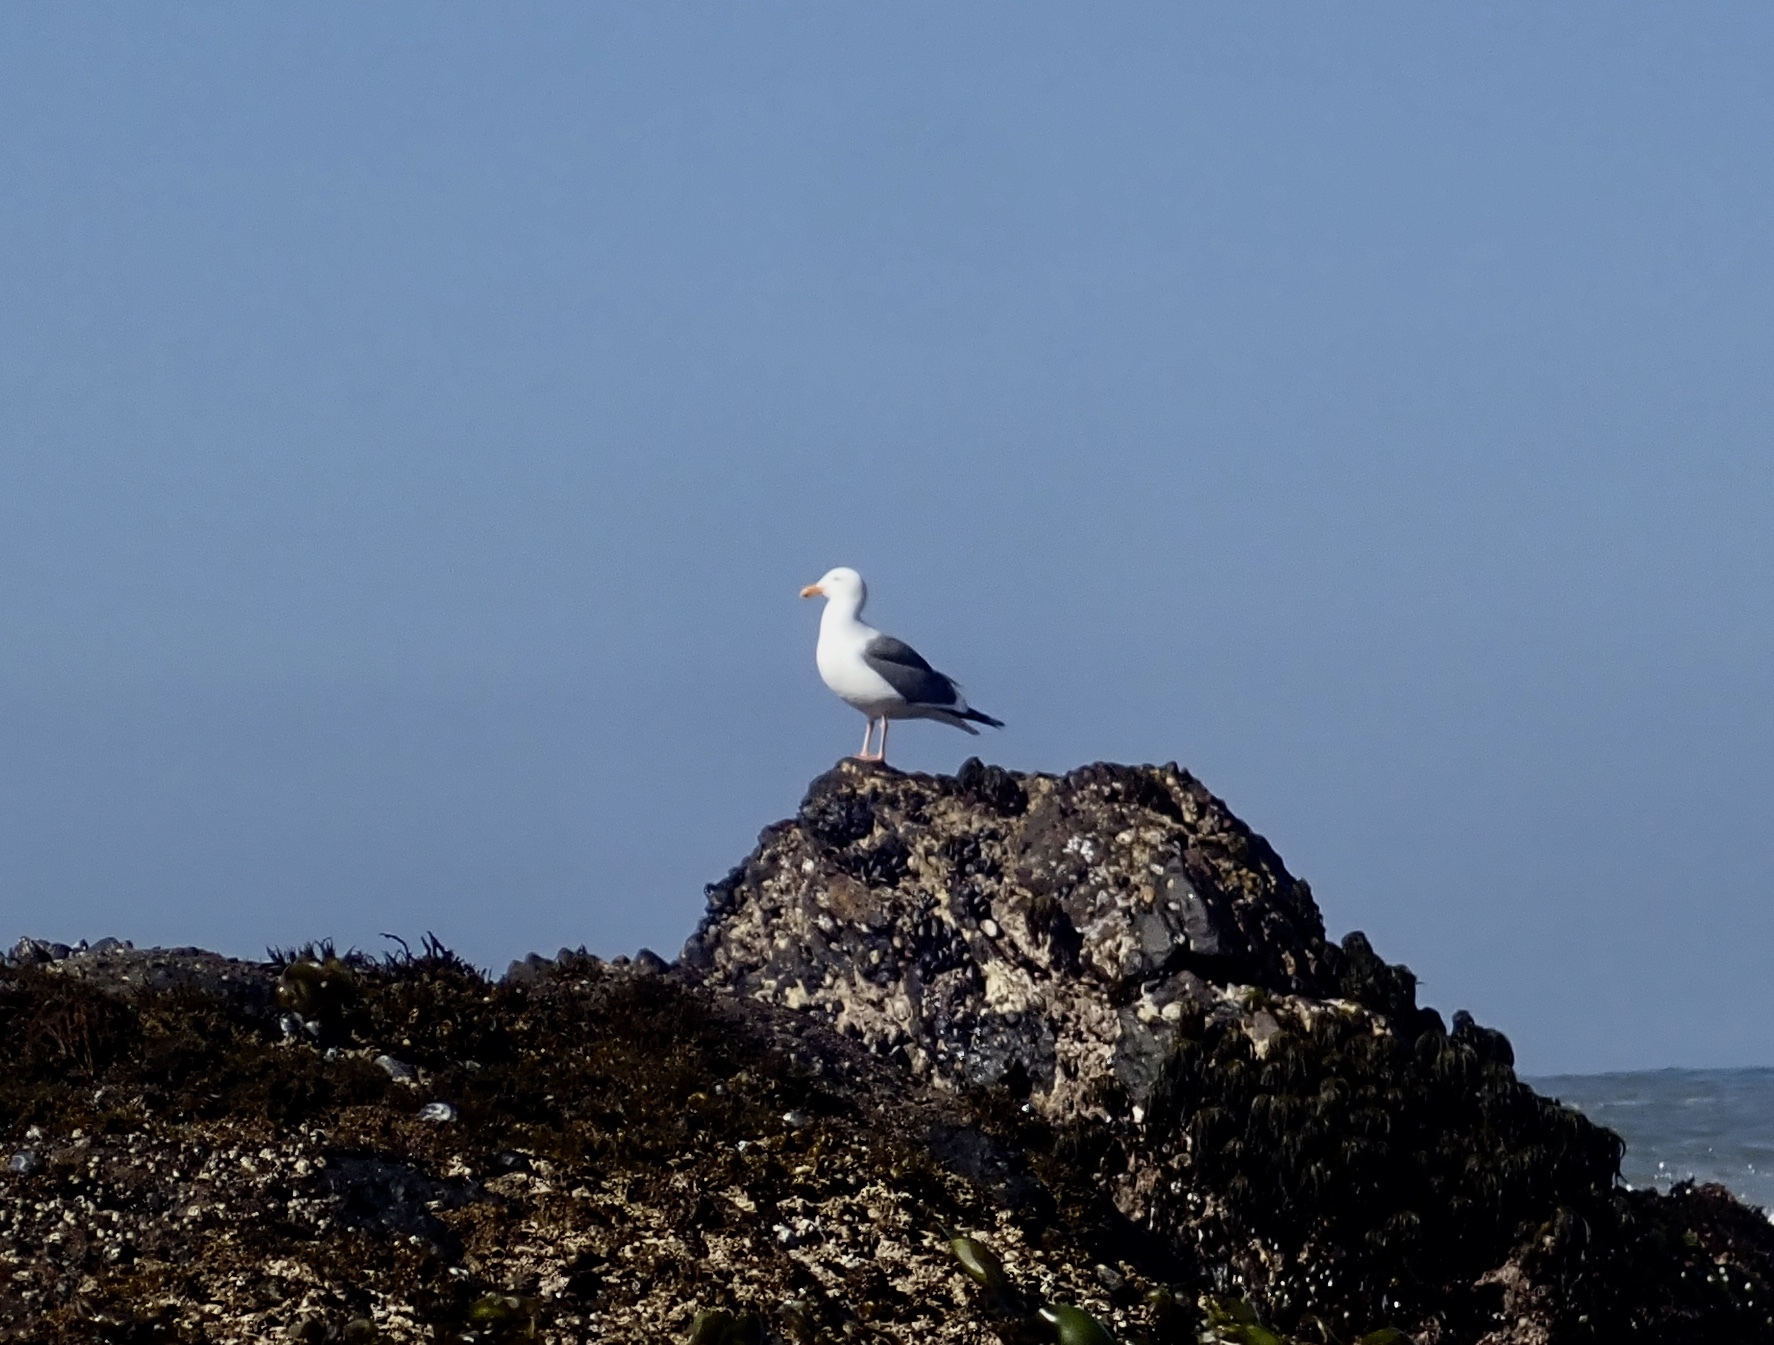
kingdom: Animalia
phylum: Chordata
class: Aves
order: Charadriiformes
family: Laridae
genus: Larus
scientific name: Larus occidentalis
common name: Western gull
